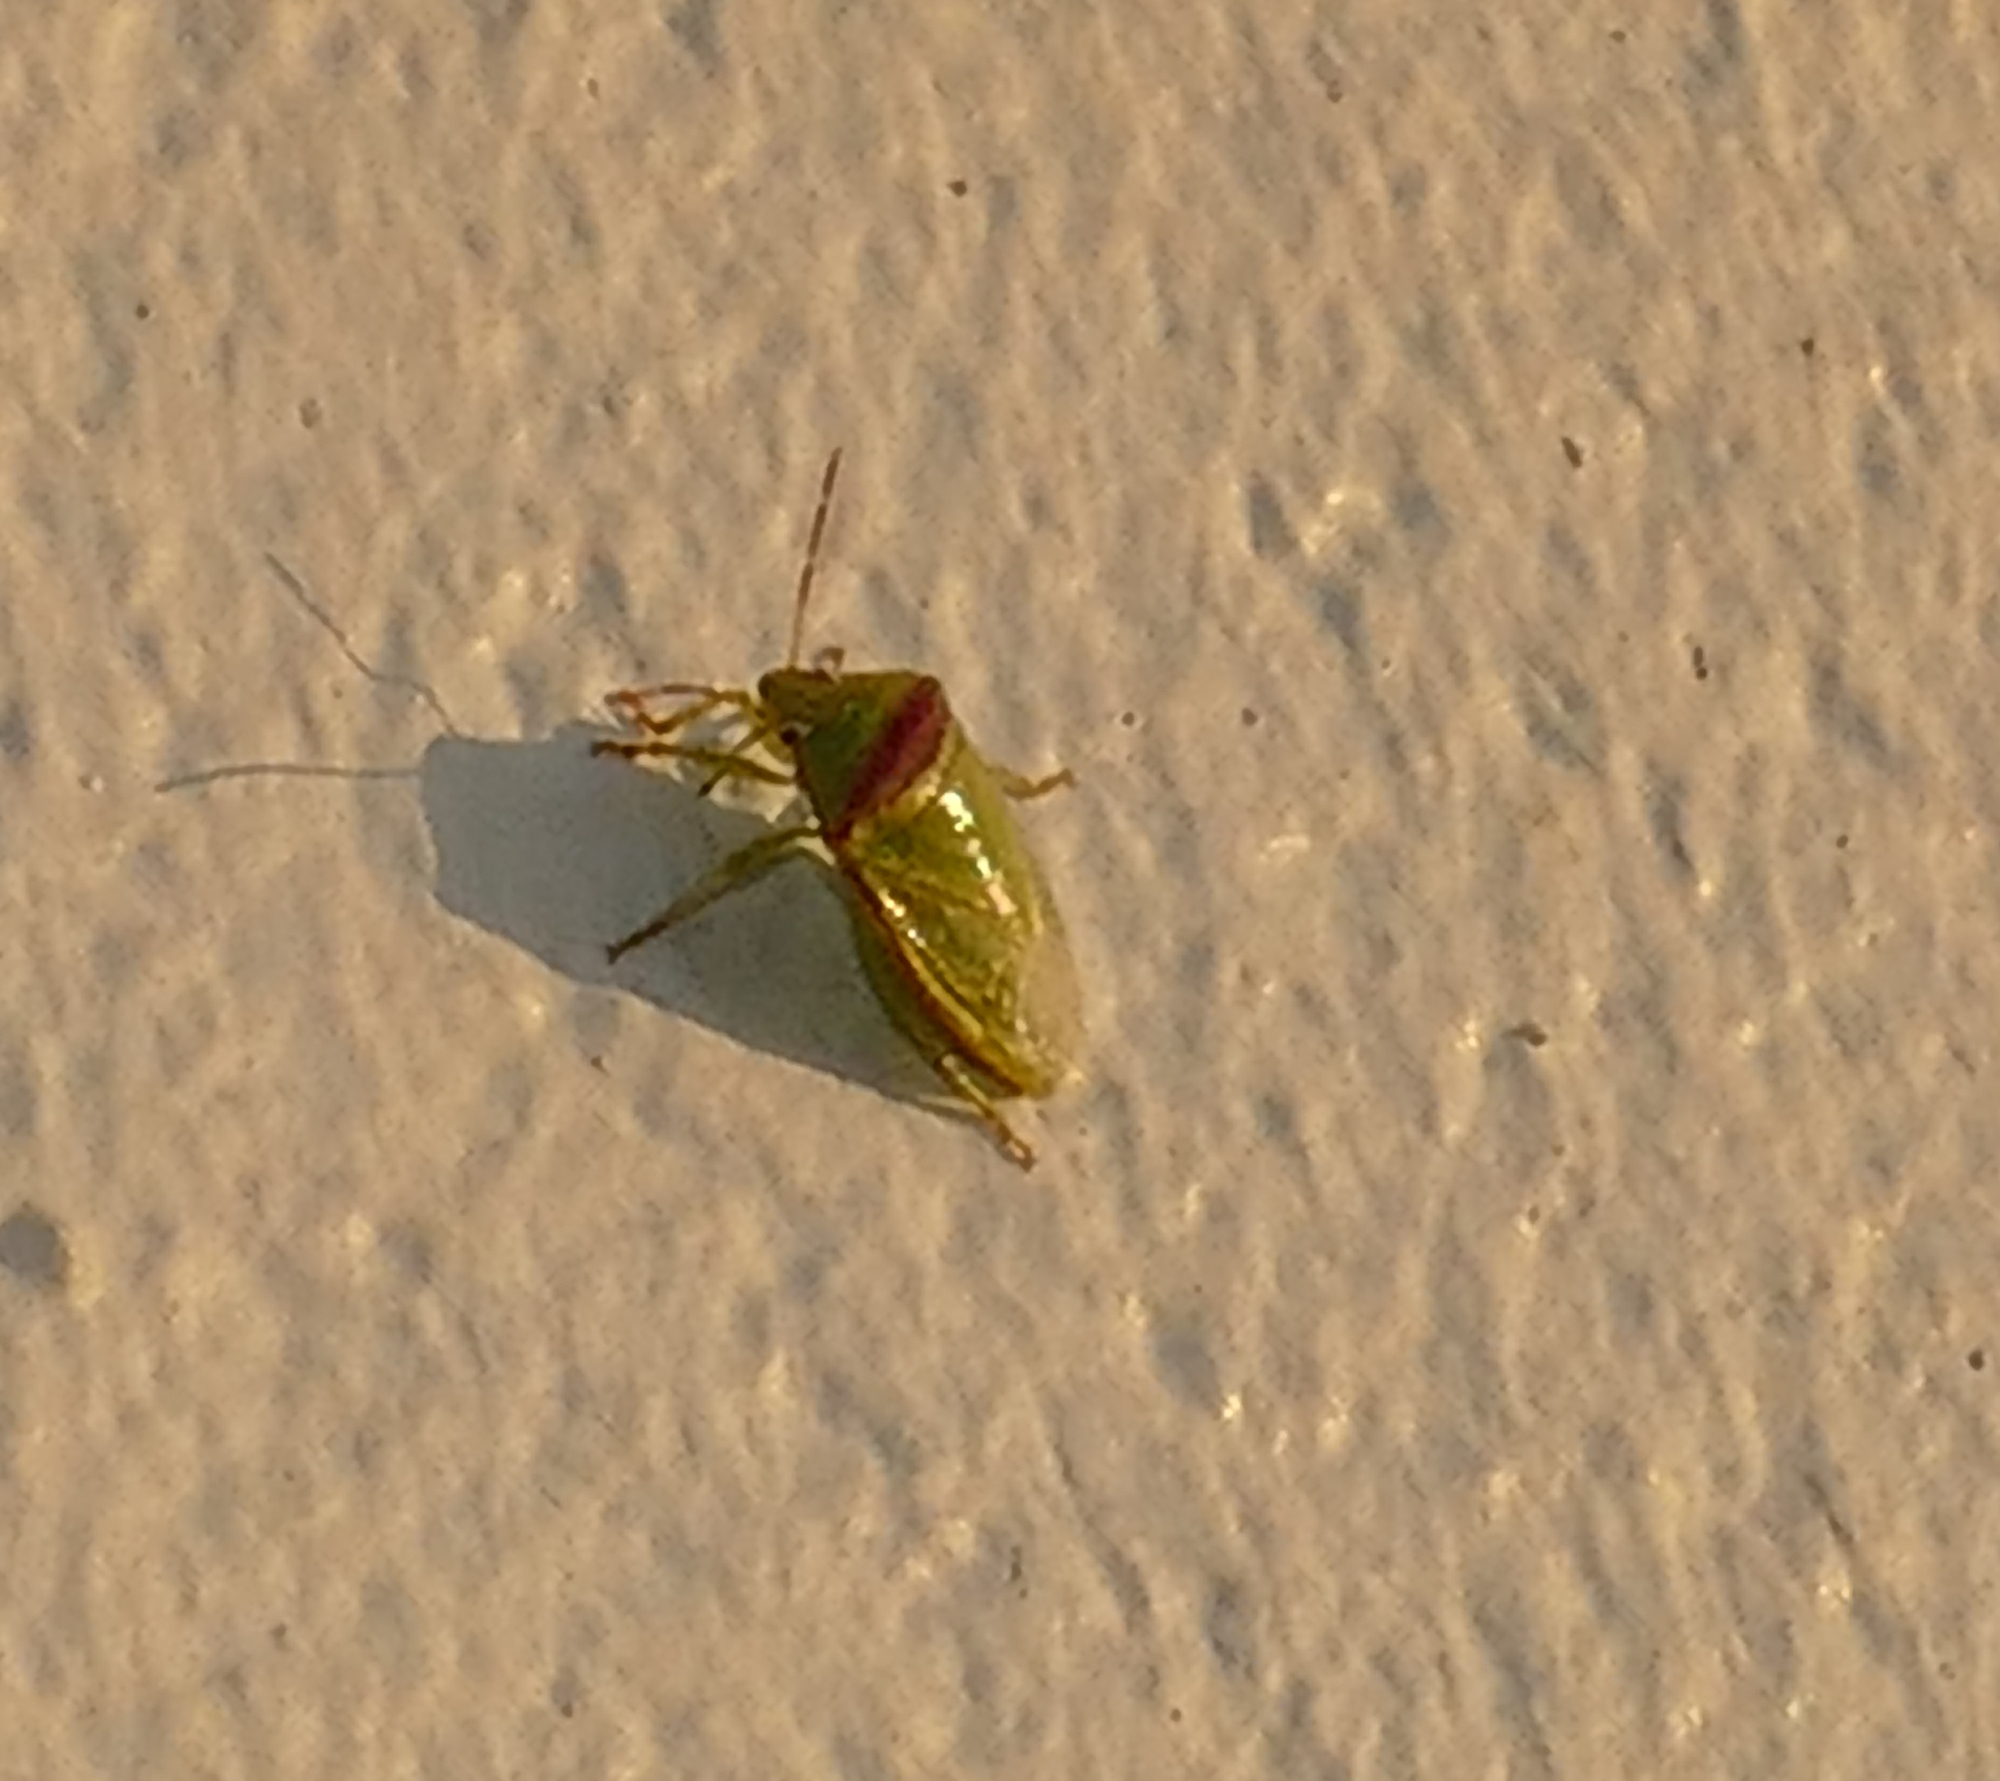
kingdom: Animalia
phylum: Arthropoda
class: Insecta
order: Hemiptera
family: Pentatomidae
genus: Piezodorus
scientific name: Piezodorus guildinii
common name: Redbanded stink bug
